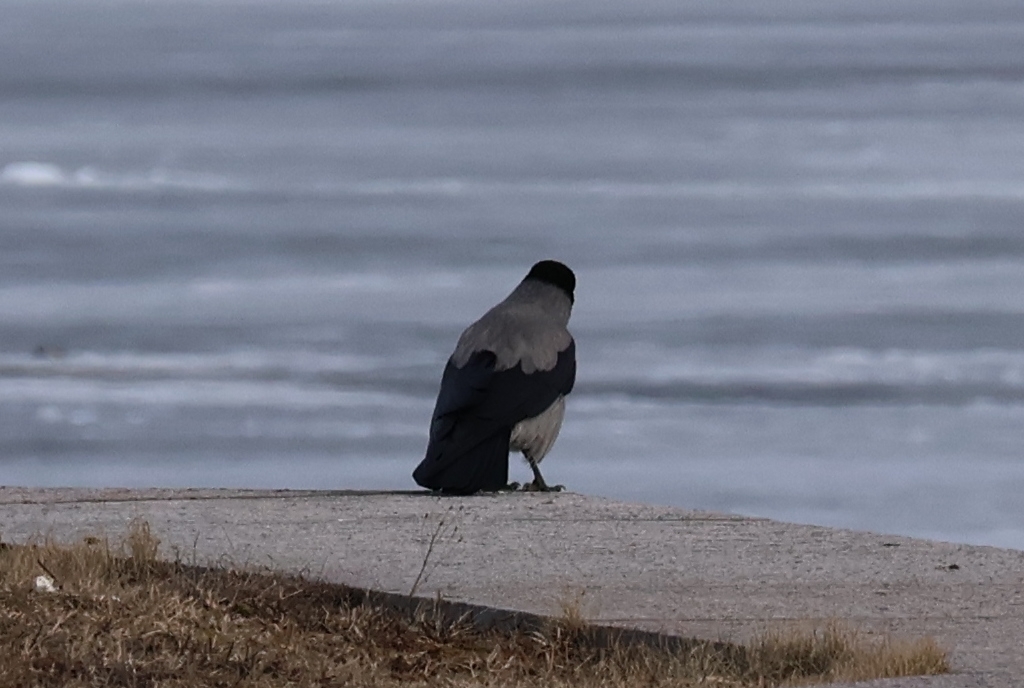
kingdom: Animalia
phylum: Chordata
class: Aves
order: Passeriformes
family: Corvidae
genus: Corvus
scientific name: Corvus cornix
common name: Hooded crow
